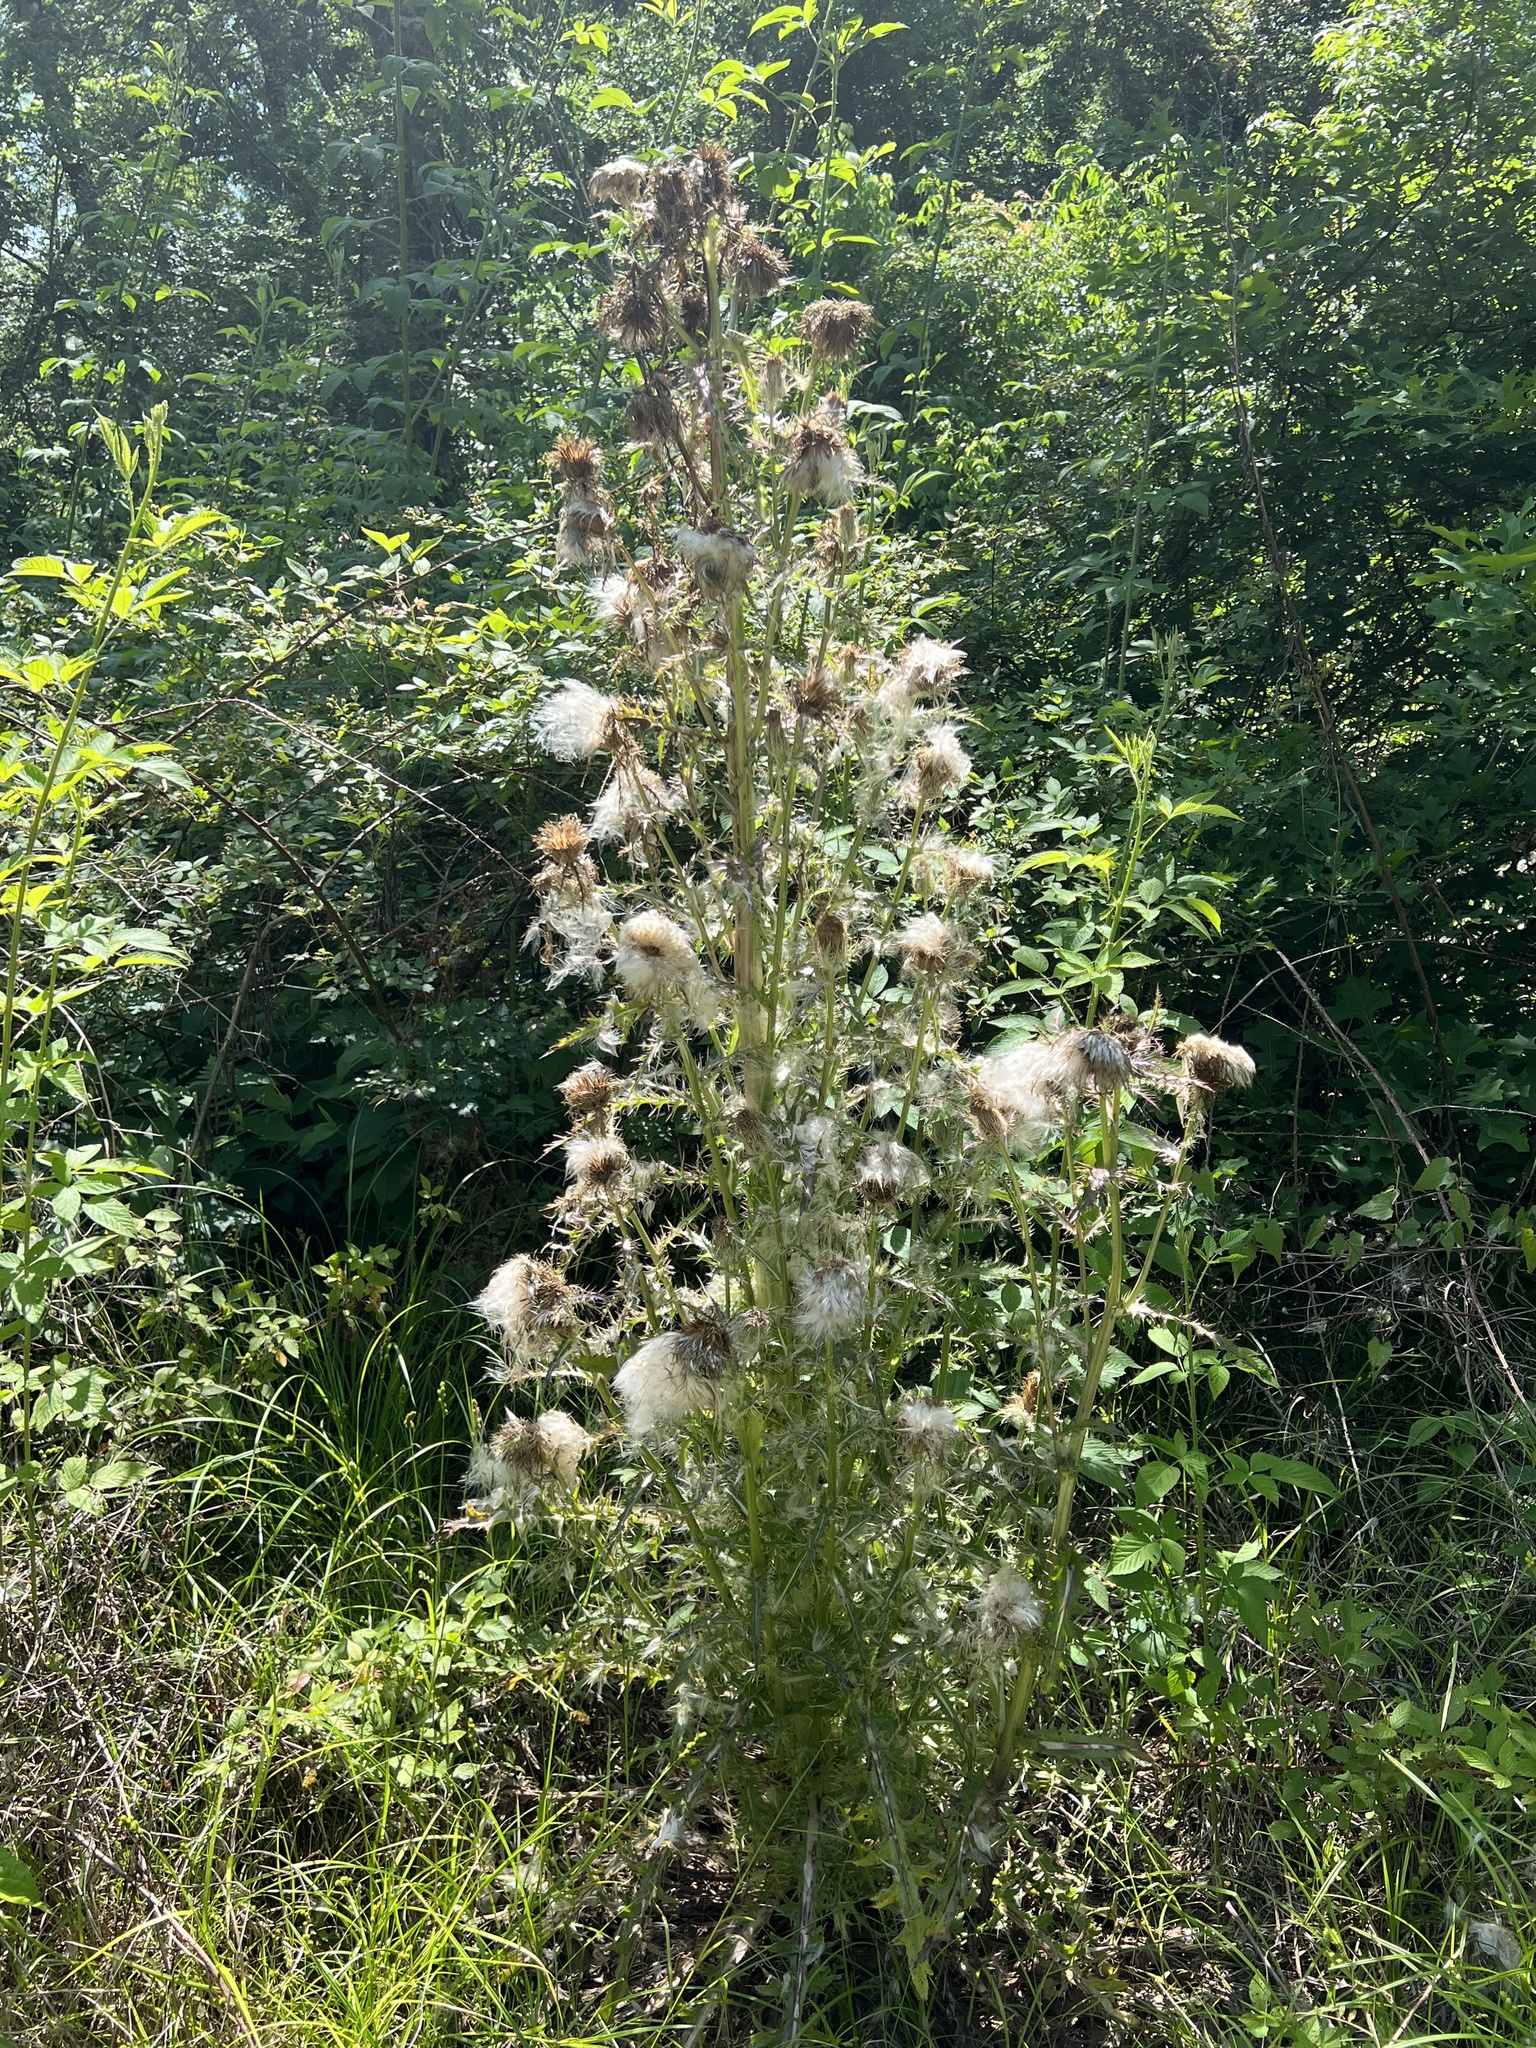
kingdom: Plantae
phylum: Tracheophyta
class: Magnoliopsida
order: Asterales
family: Asteraceae
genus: Cirsium
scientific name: Cirsium horridulum
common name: Bristly thistle
